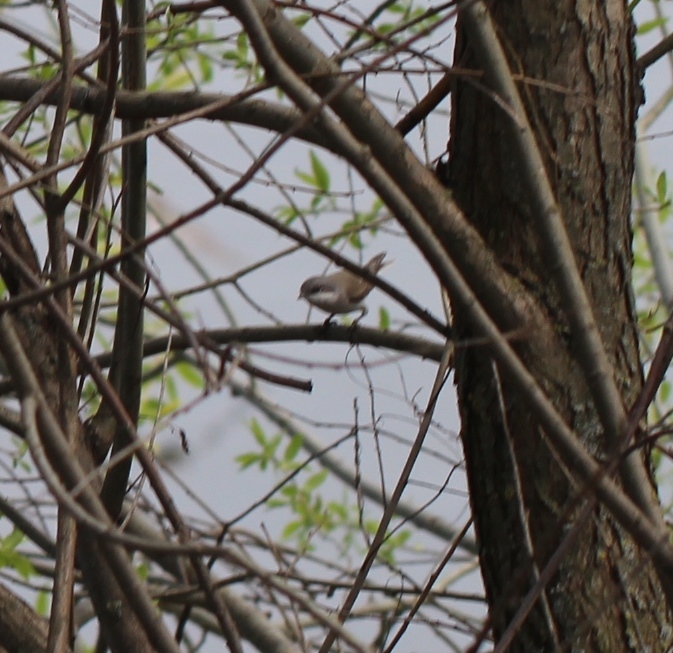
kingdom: Animalia
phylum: Chordata
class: Aves
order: Passeriformes
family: Sylviidae
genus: Sylvia
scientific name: Sylvia curruca
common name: Lesser whitethroat
